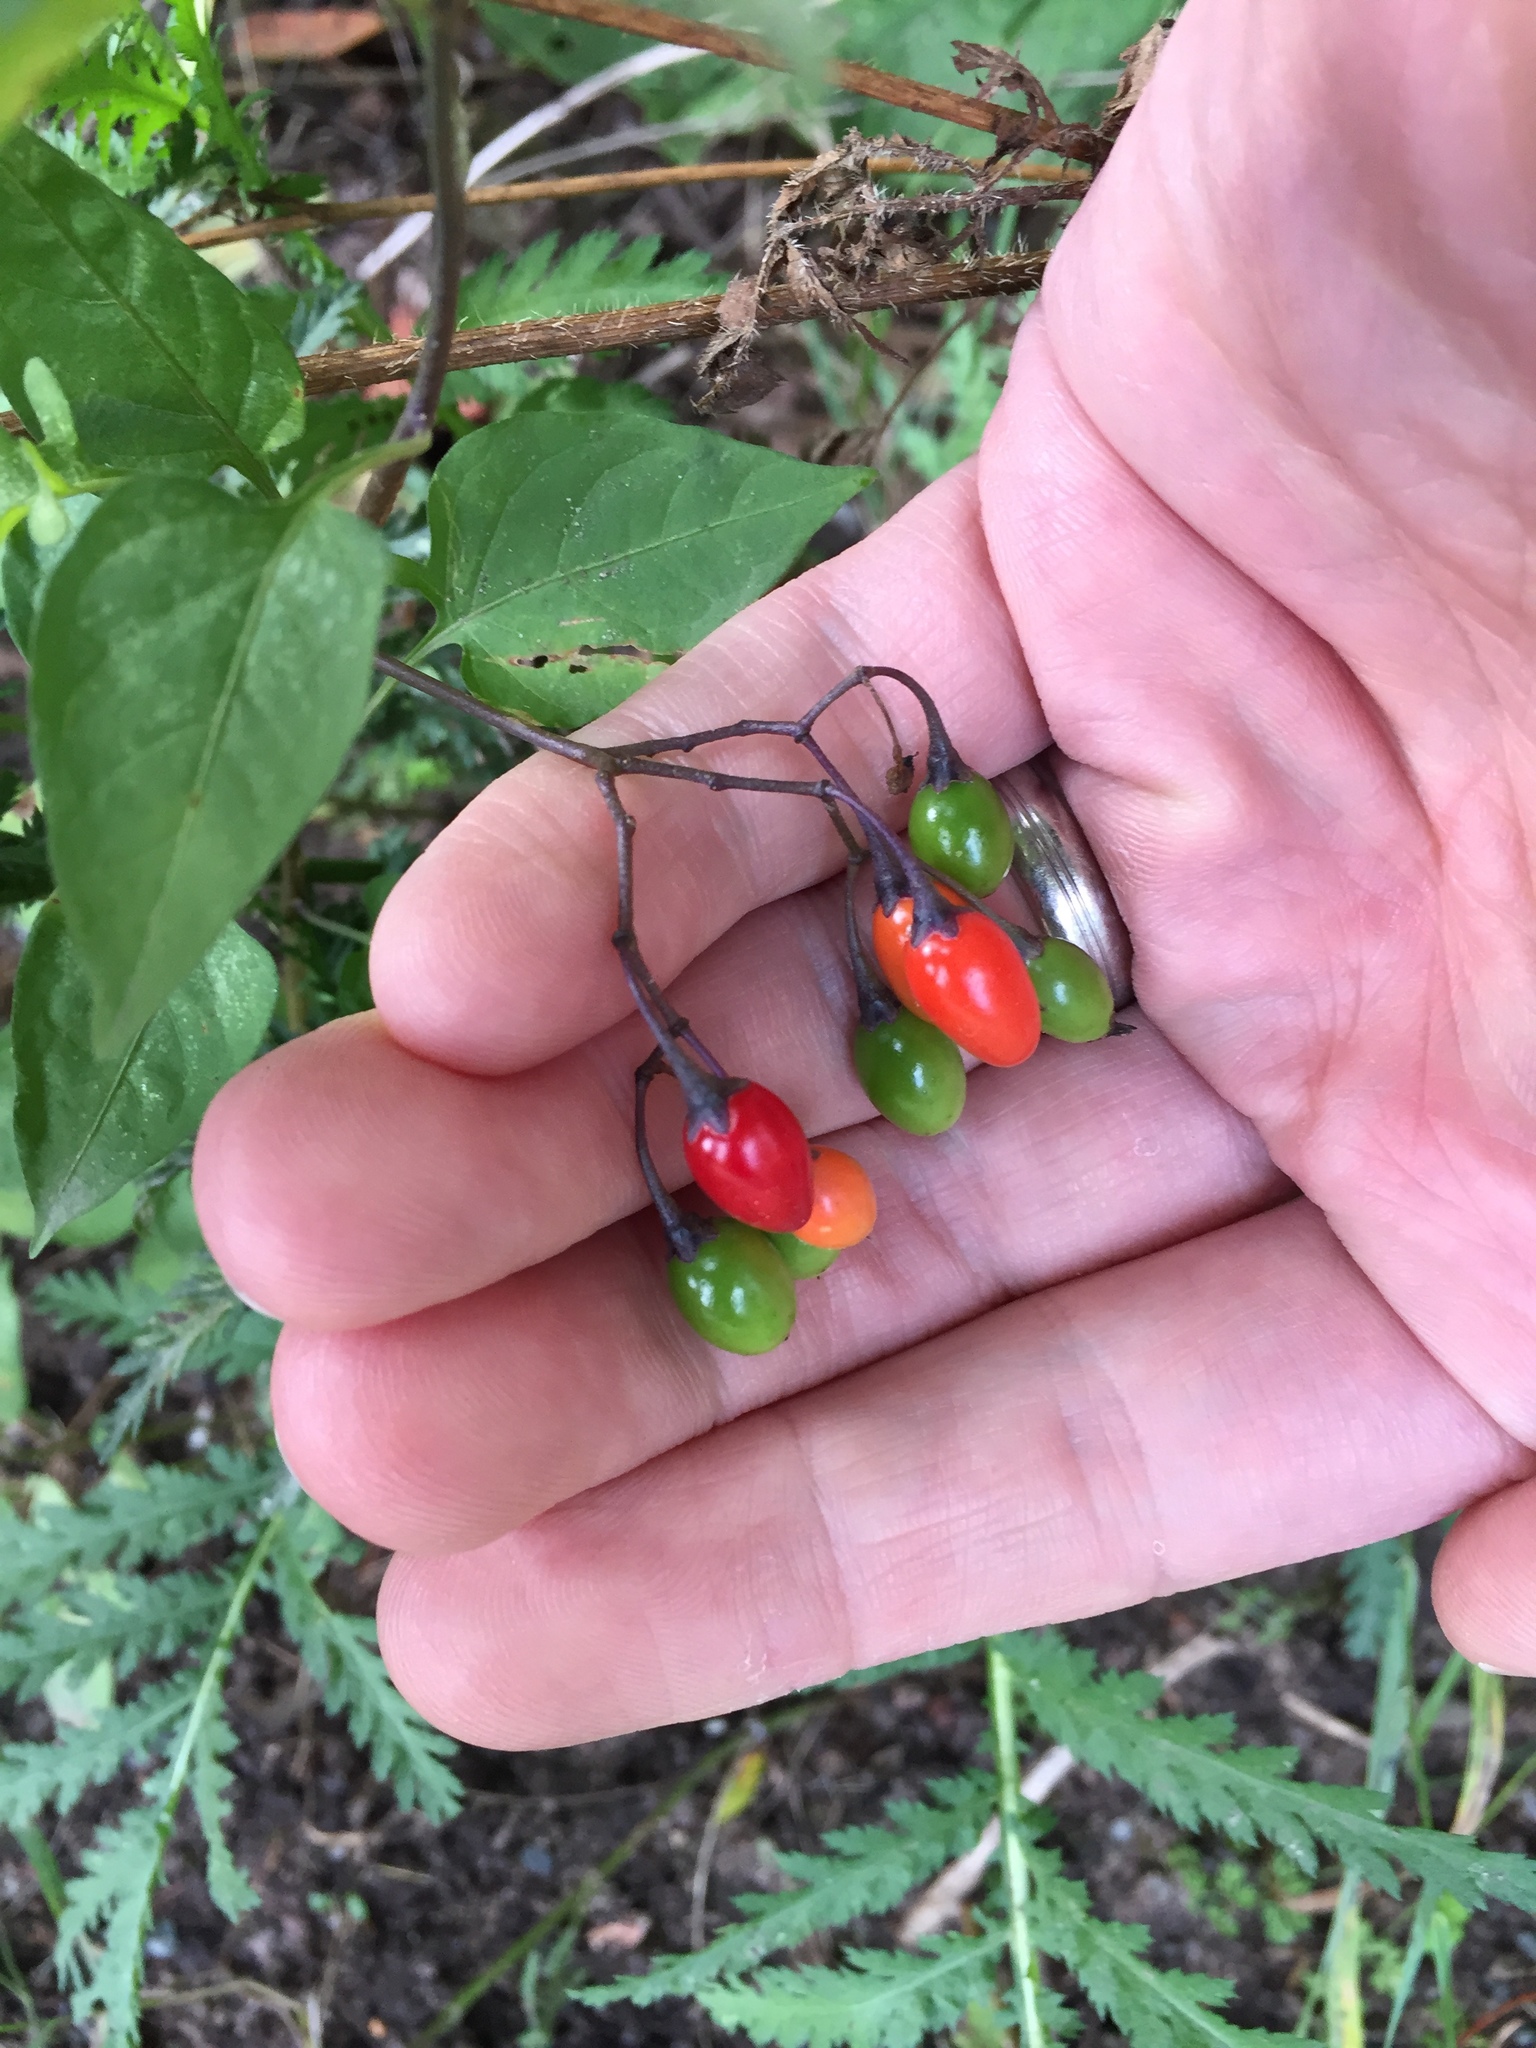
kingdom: Plantae
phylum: Tracheophyta
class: Magnoliopsida
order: Solanales
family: Solanaceae
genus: Solanum
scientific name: Solanum dulcamara
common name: Climbing nightshade
